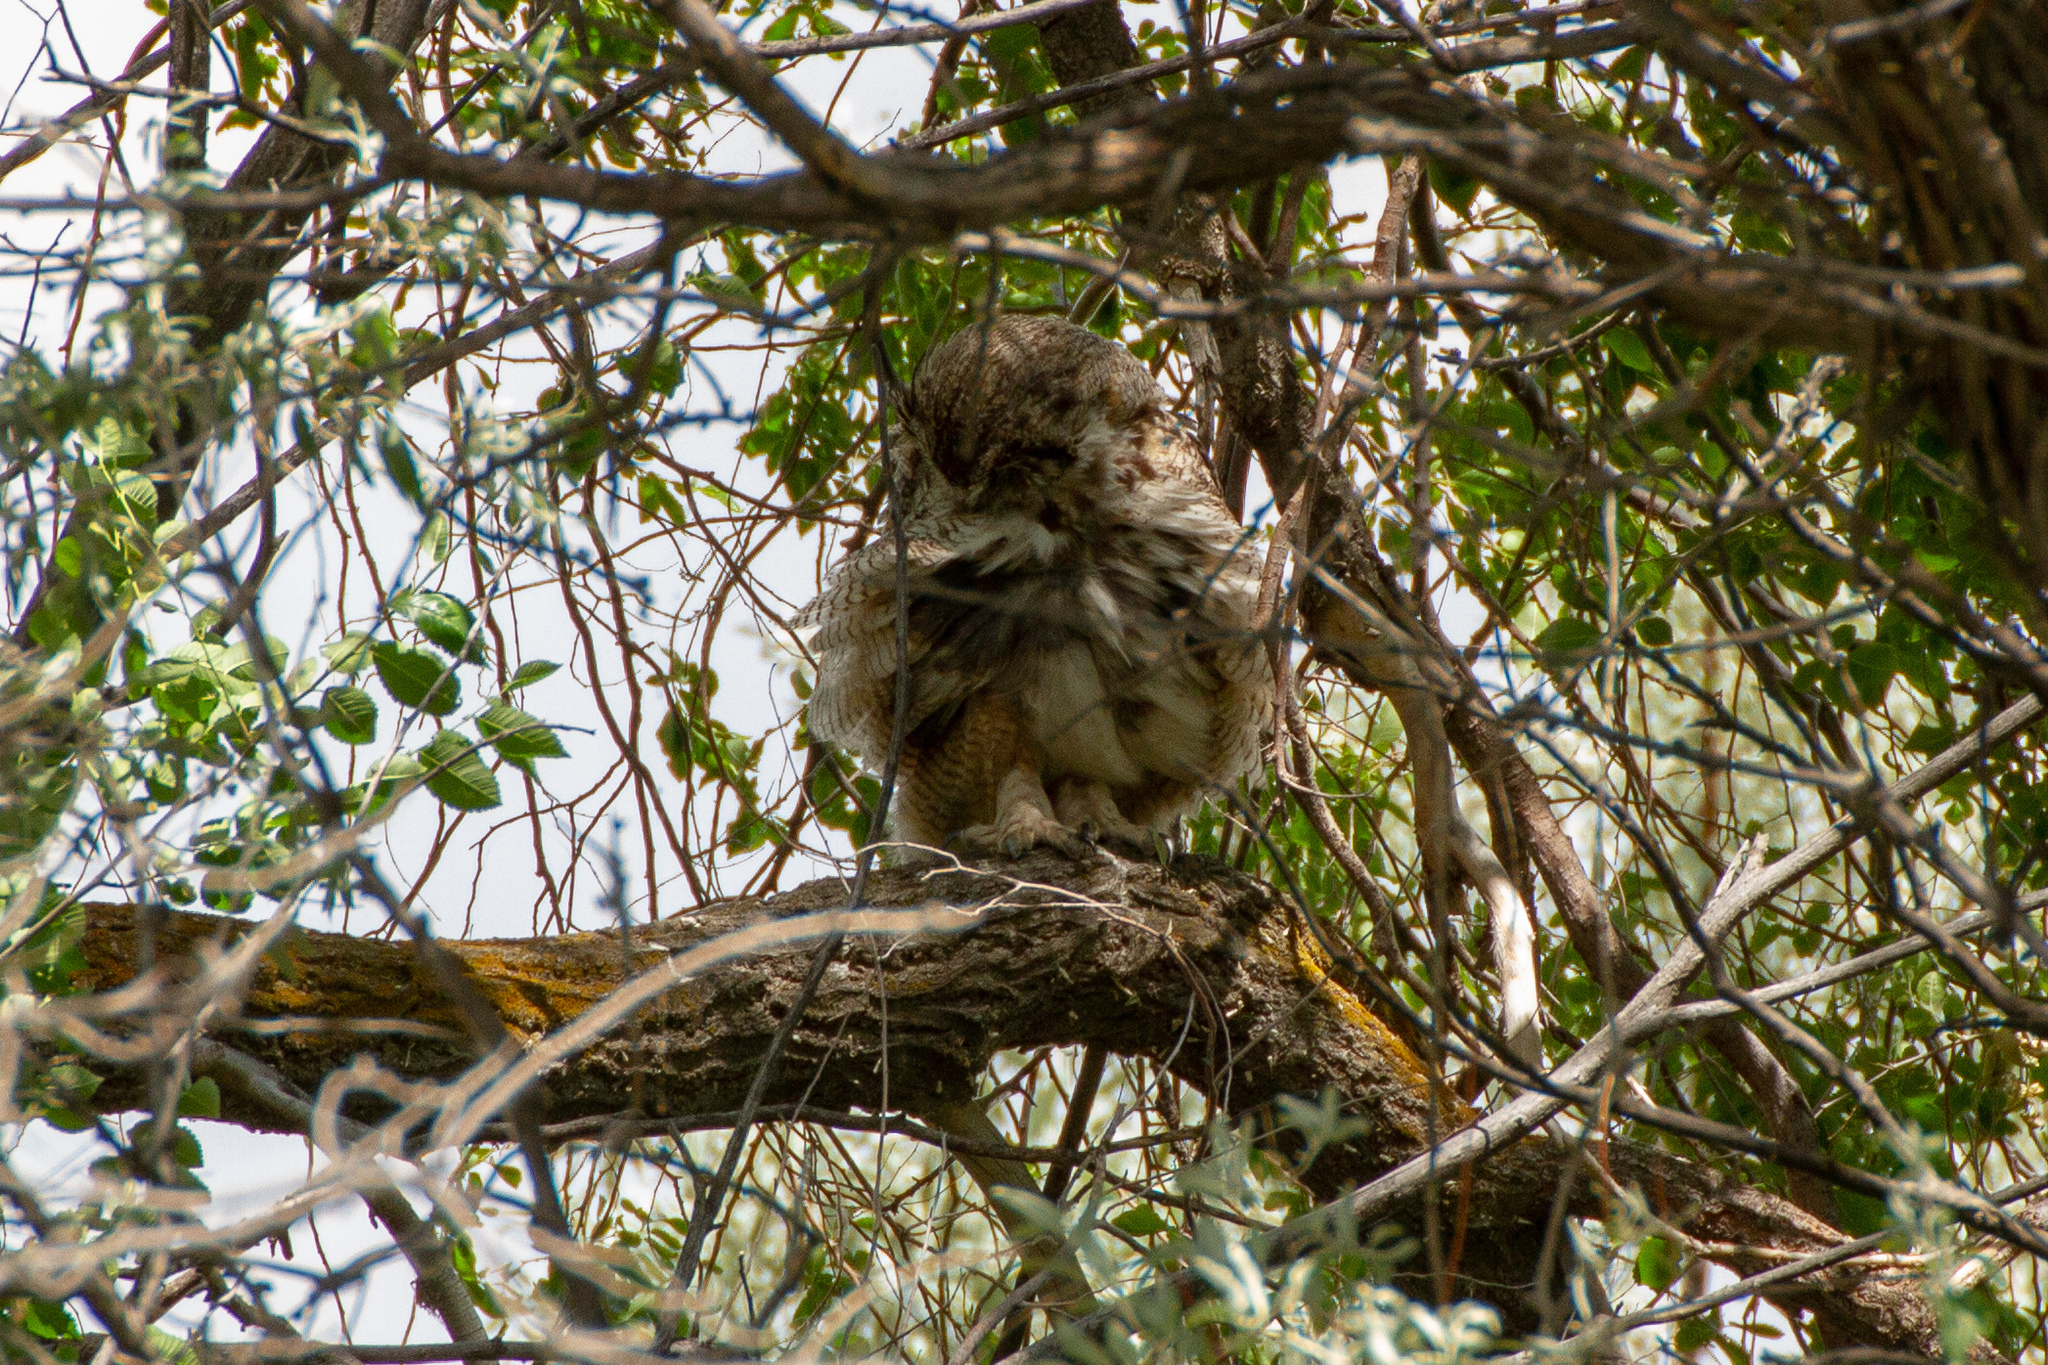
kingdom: Animalia
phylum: Chordata
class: Aves
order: Strigiformes
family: Strigidae
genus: Bubo
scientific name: Bubo virginianus
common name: Great horned owl
